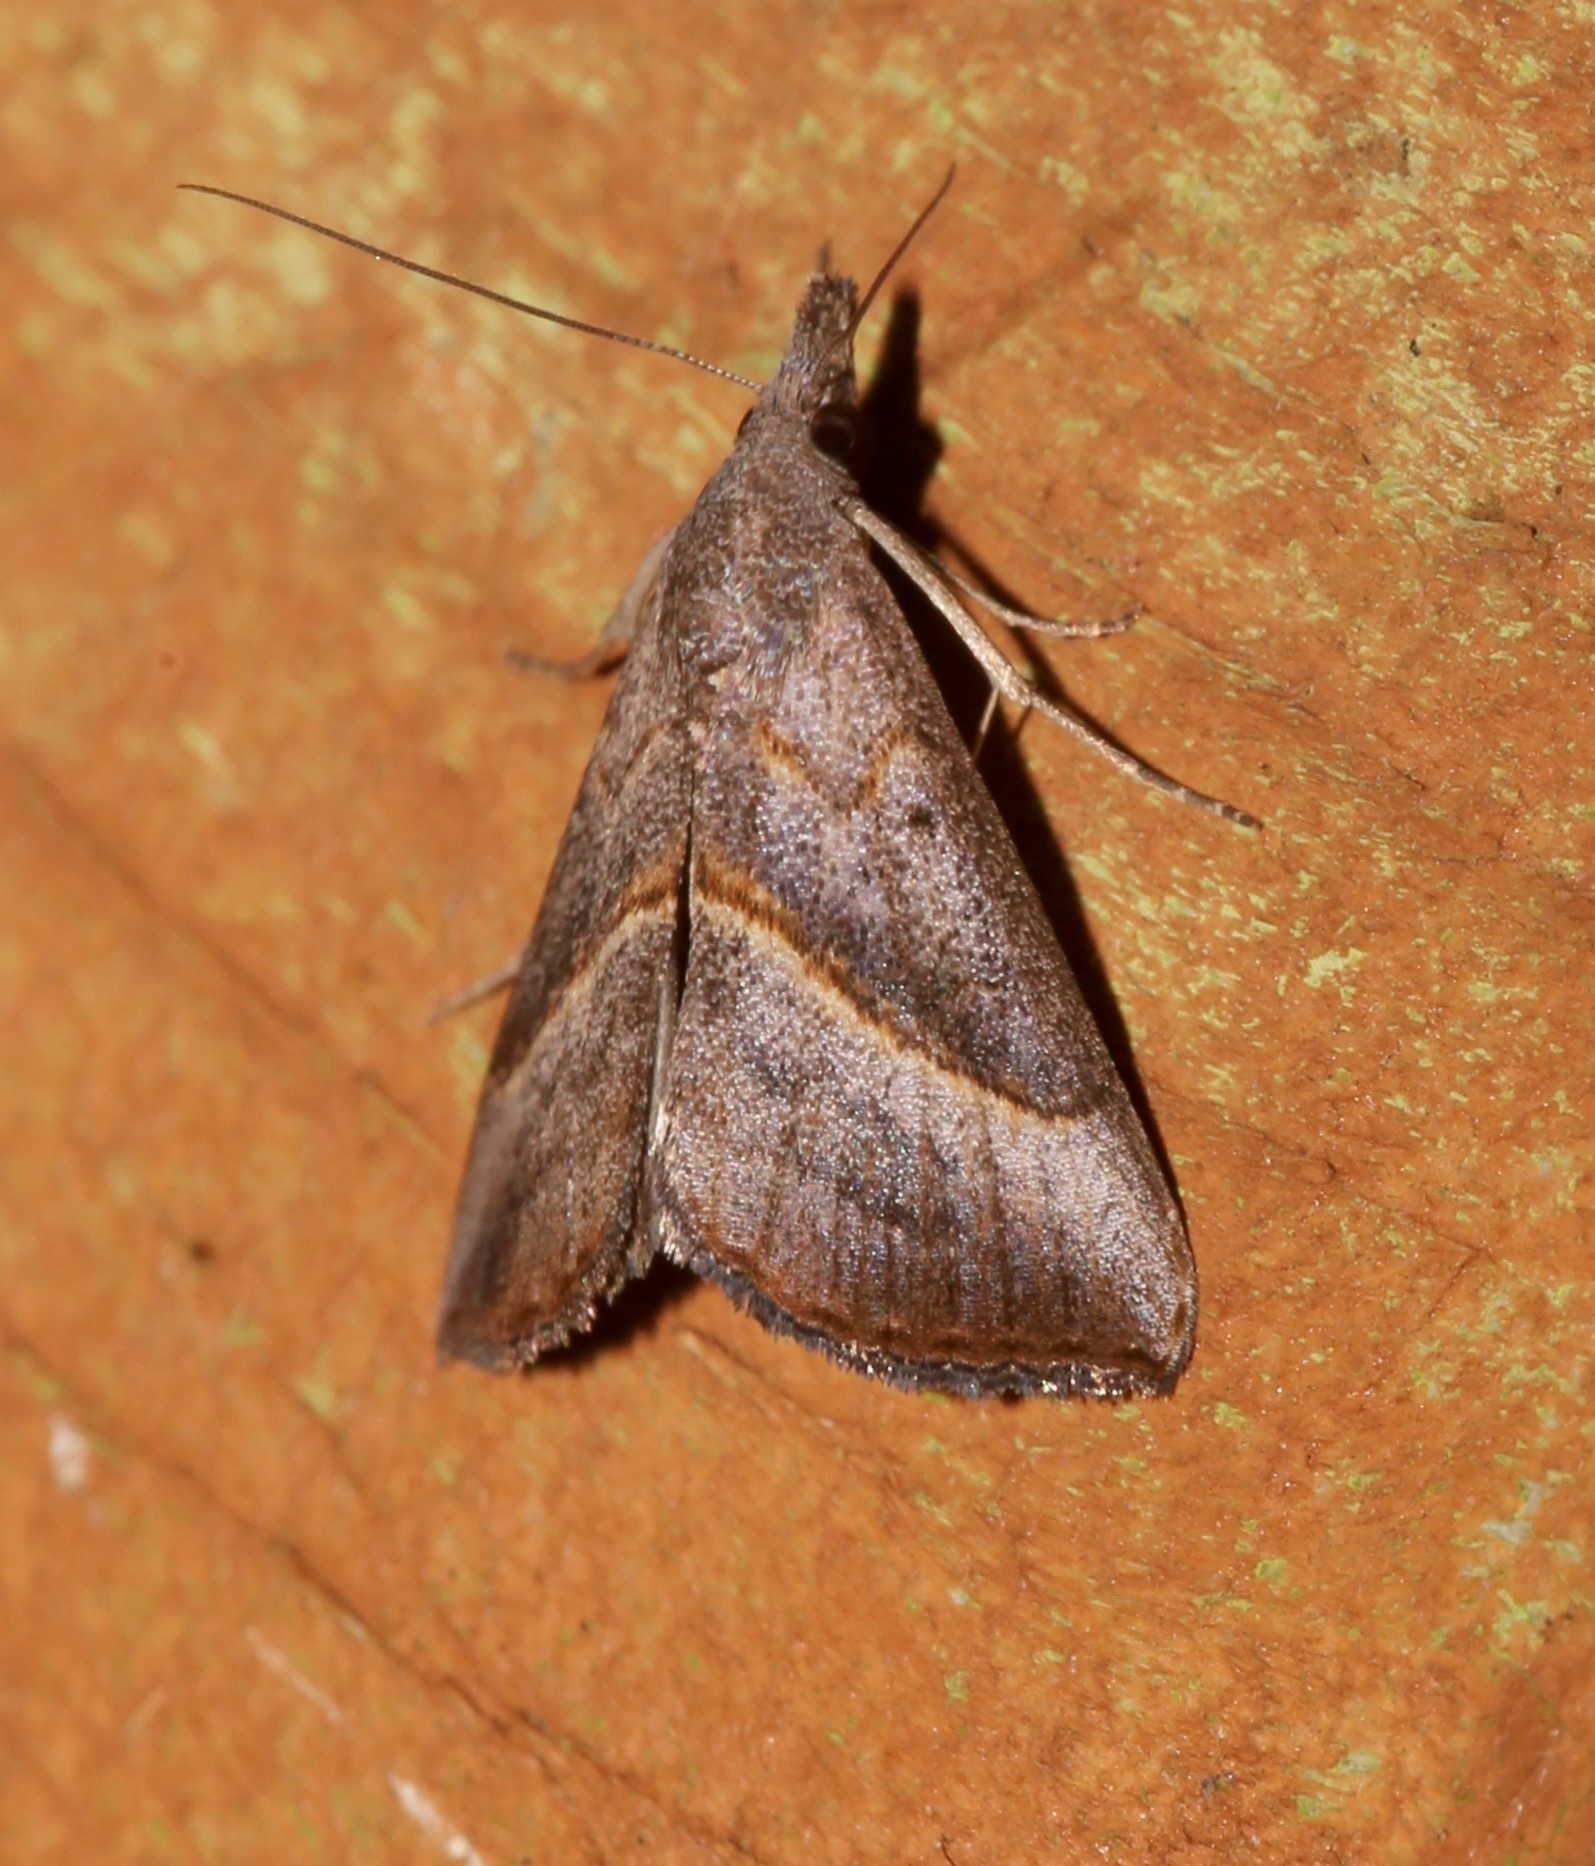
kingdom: Animalia
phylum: Arthropoda
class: Insecta
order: Lepidoptera
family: Erebidae
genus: Hypena
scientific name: Hypena degesalis
